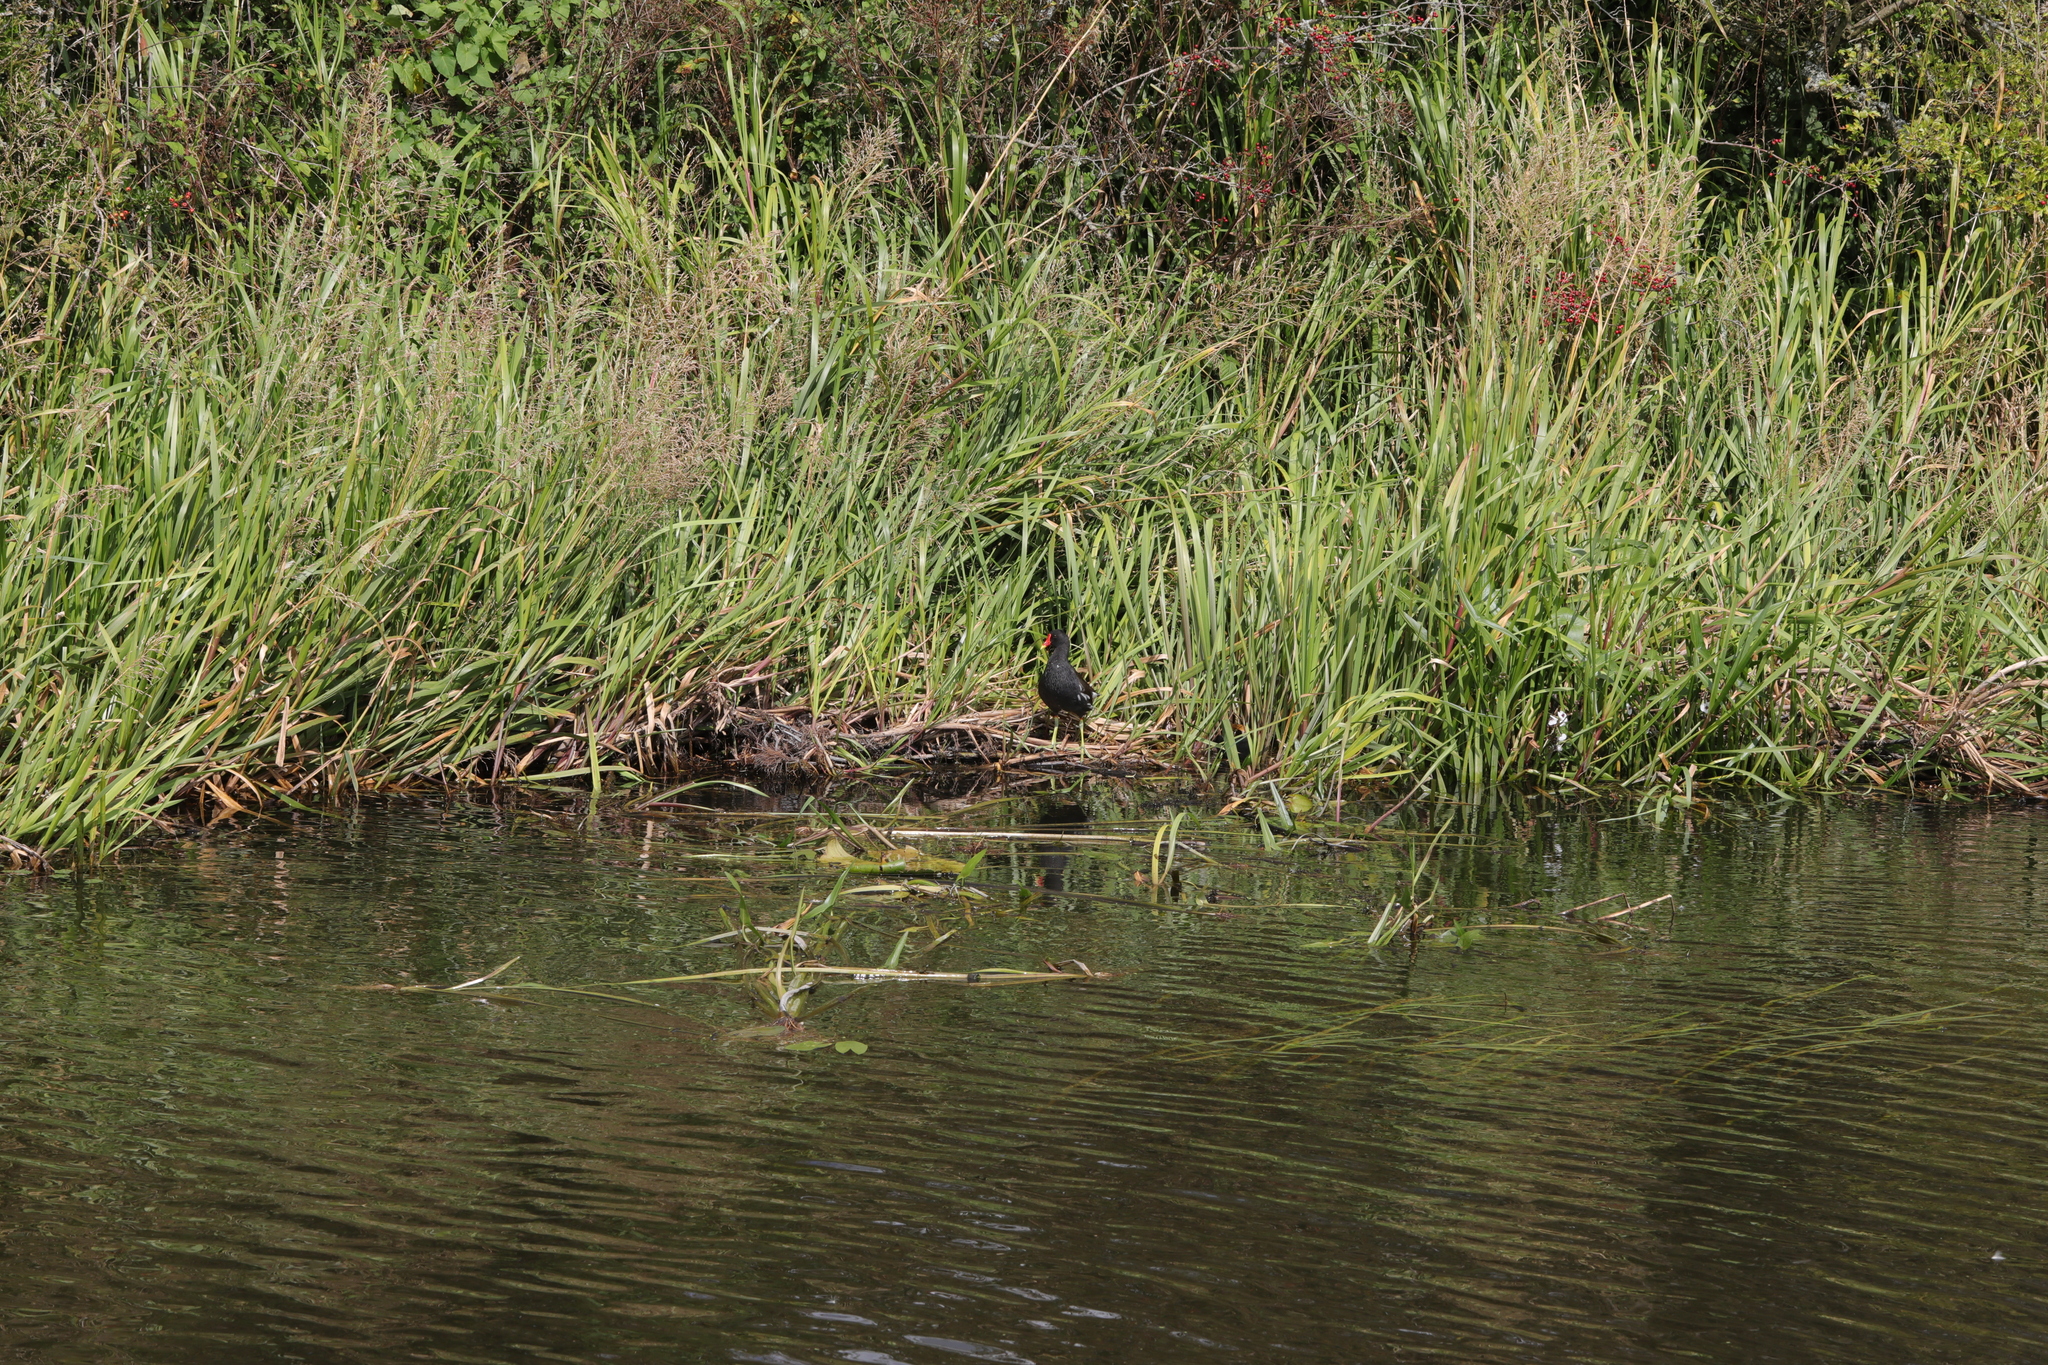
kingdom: Animalia
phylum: Chordata
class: Aves
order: Gruiformes
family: Rallidae
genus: Gallinula
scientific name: Gallinula chloropus
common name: Common moorhen
